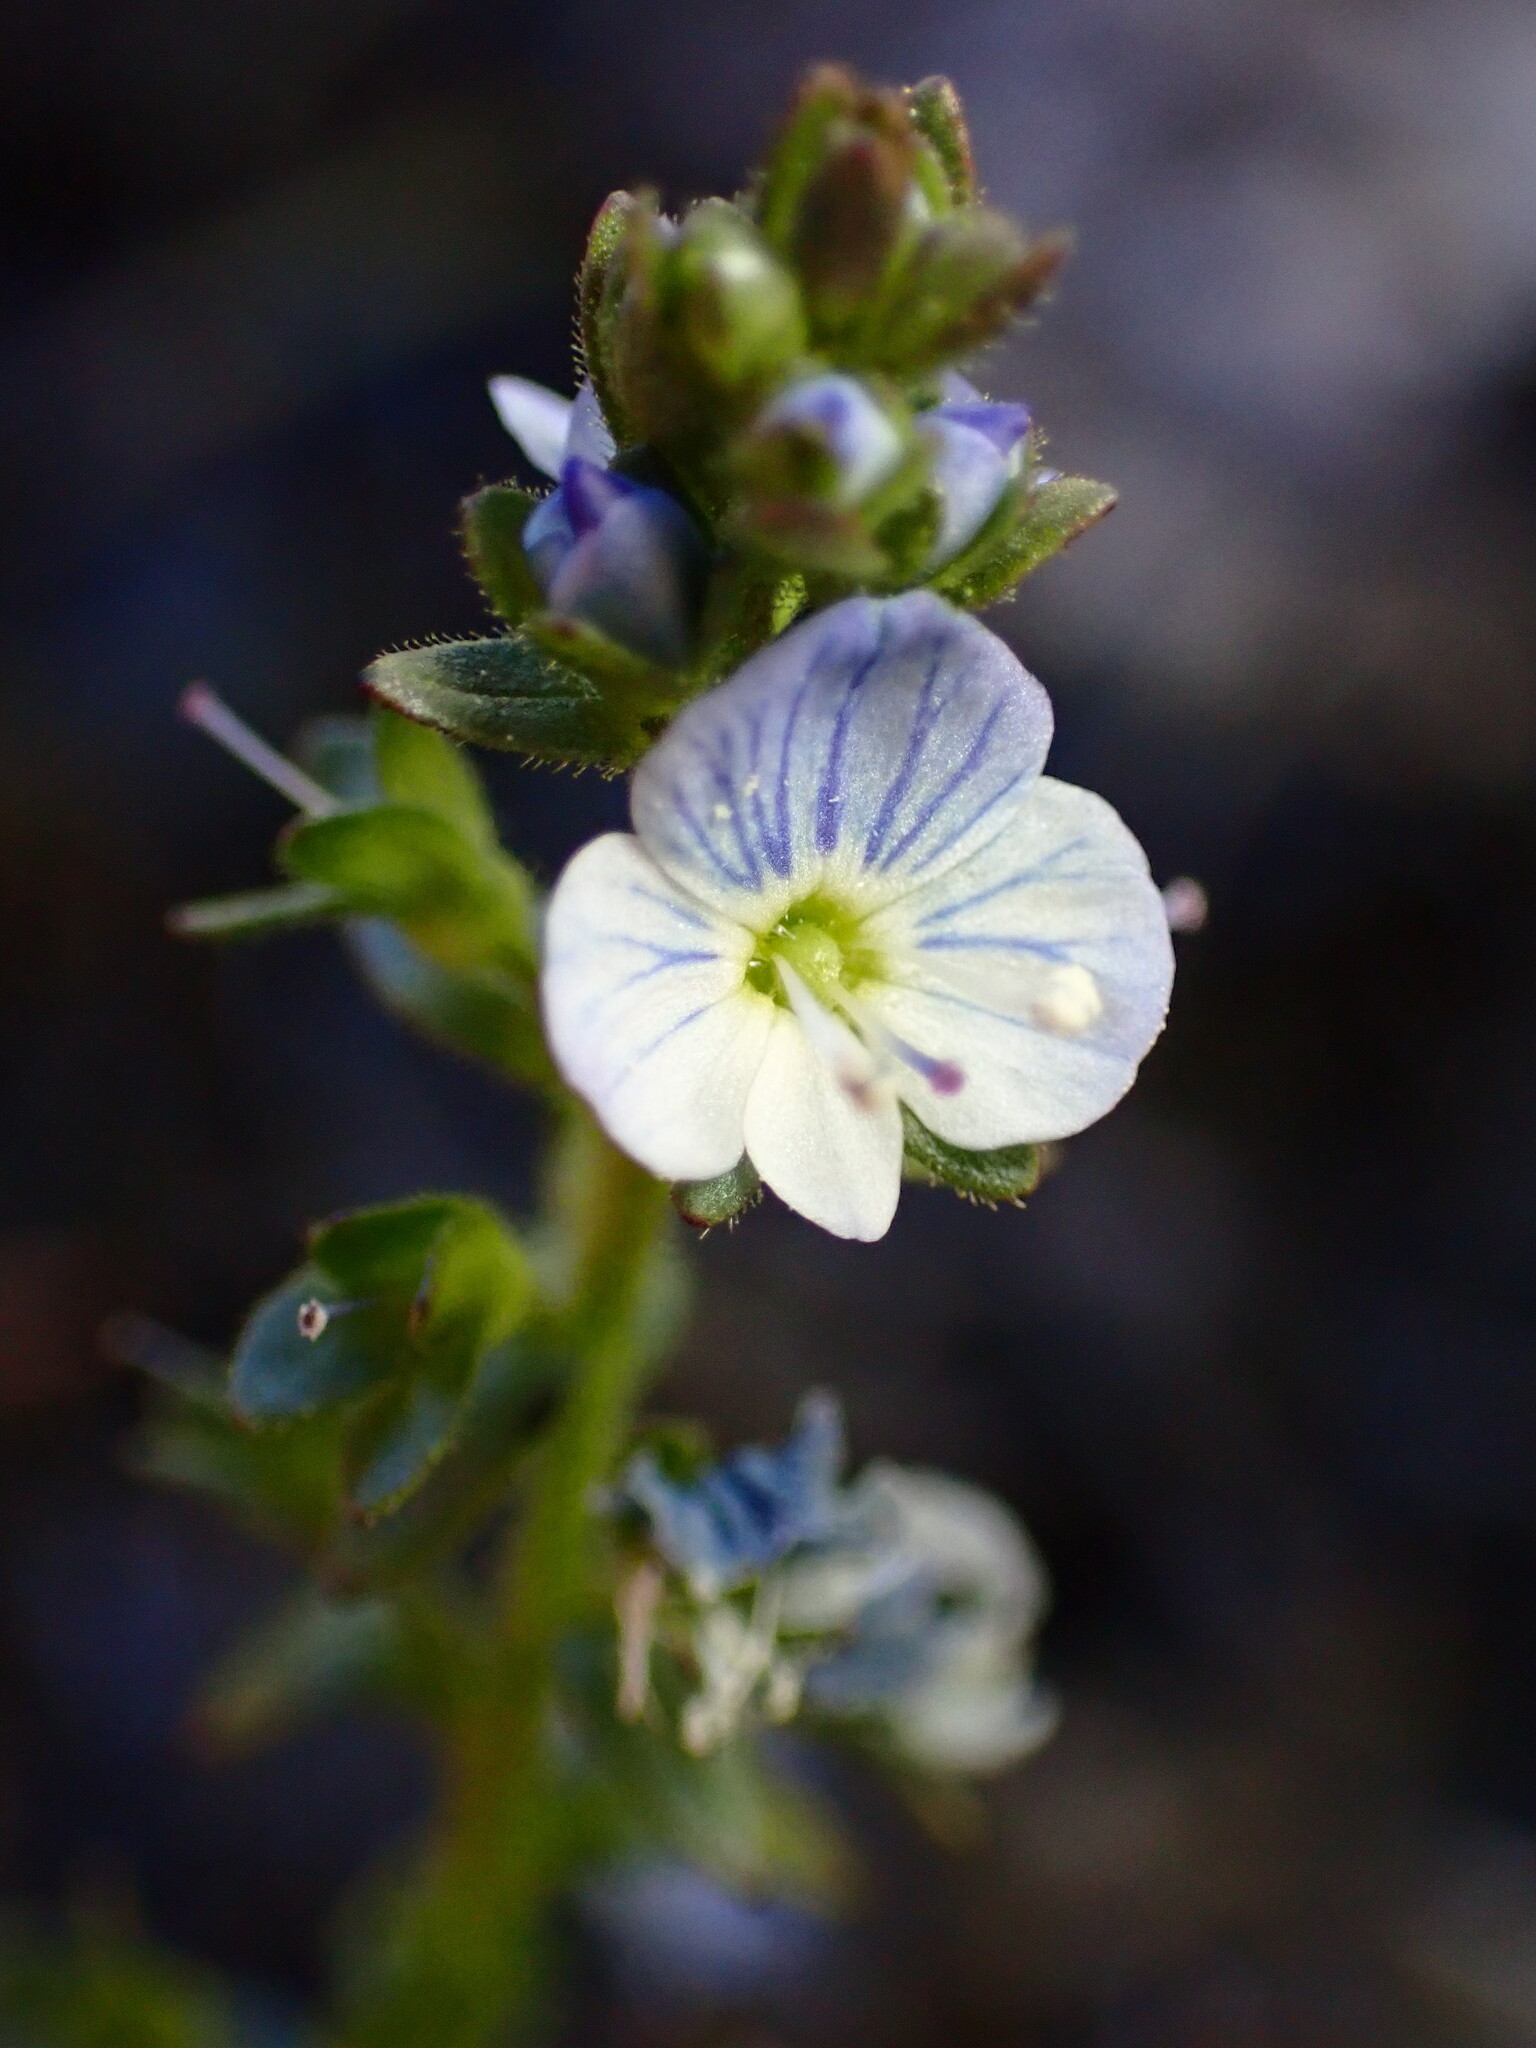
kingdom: Plantae
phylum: Tracheophyta
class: Magnoliopsida
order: Lamiales
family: Plantaginaceae
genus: Veronica
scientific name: Veronica serpyllifolia
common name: Thyme-leaved speedwell
